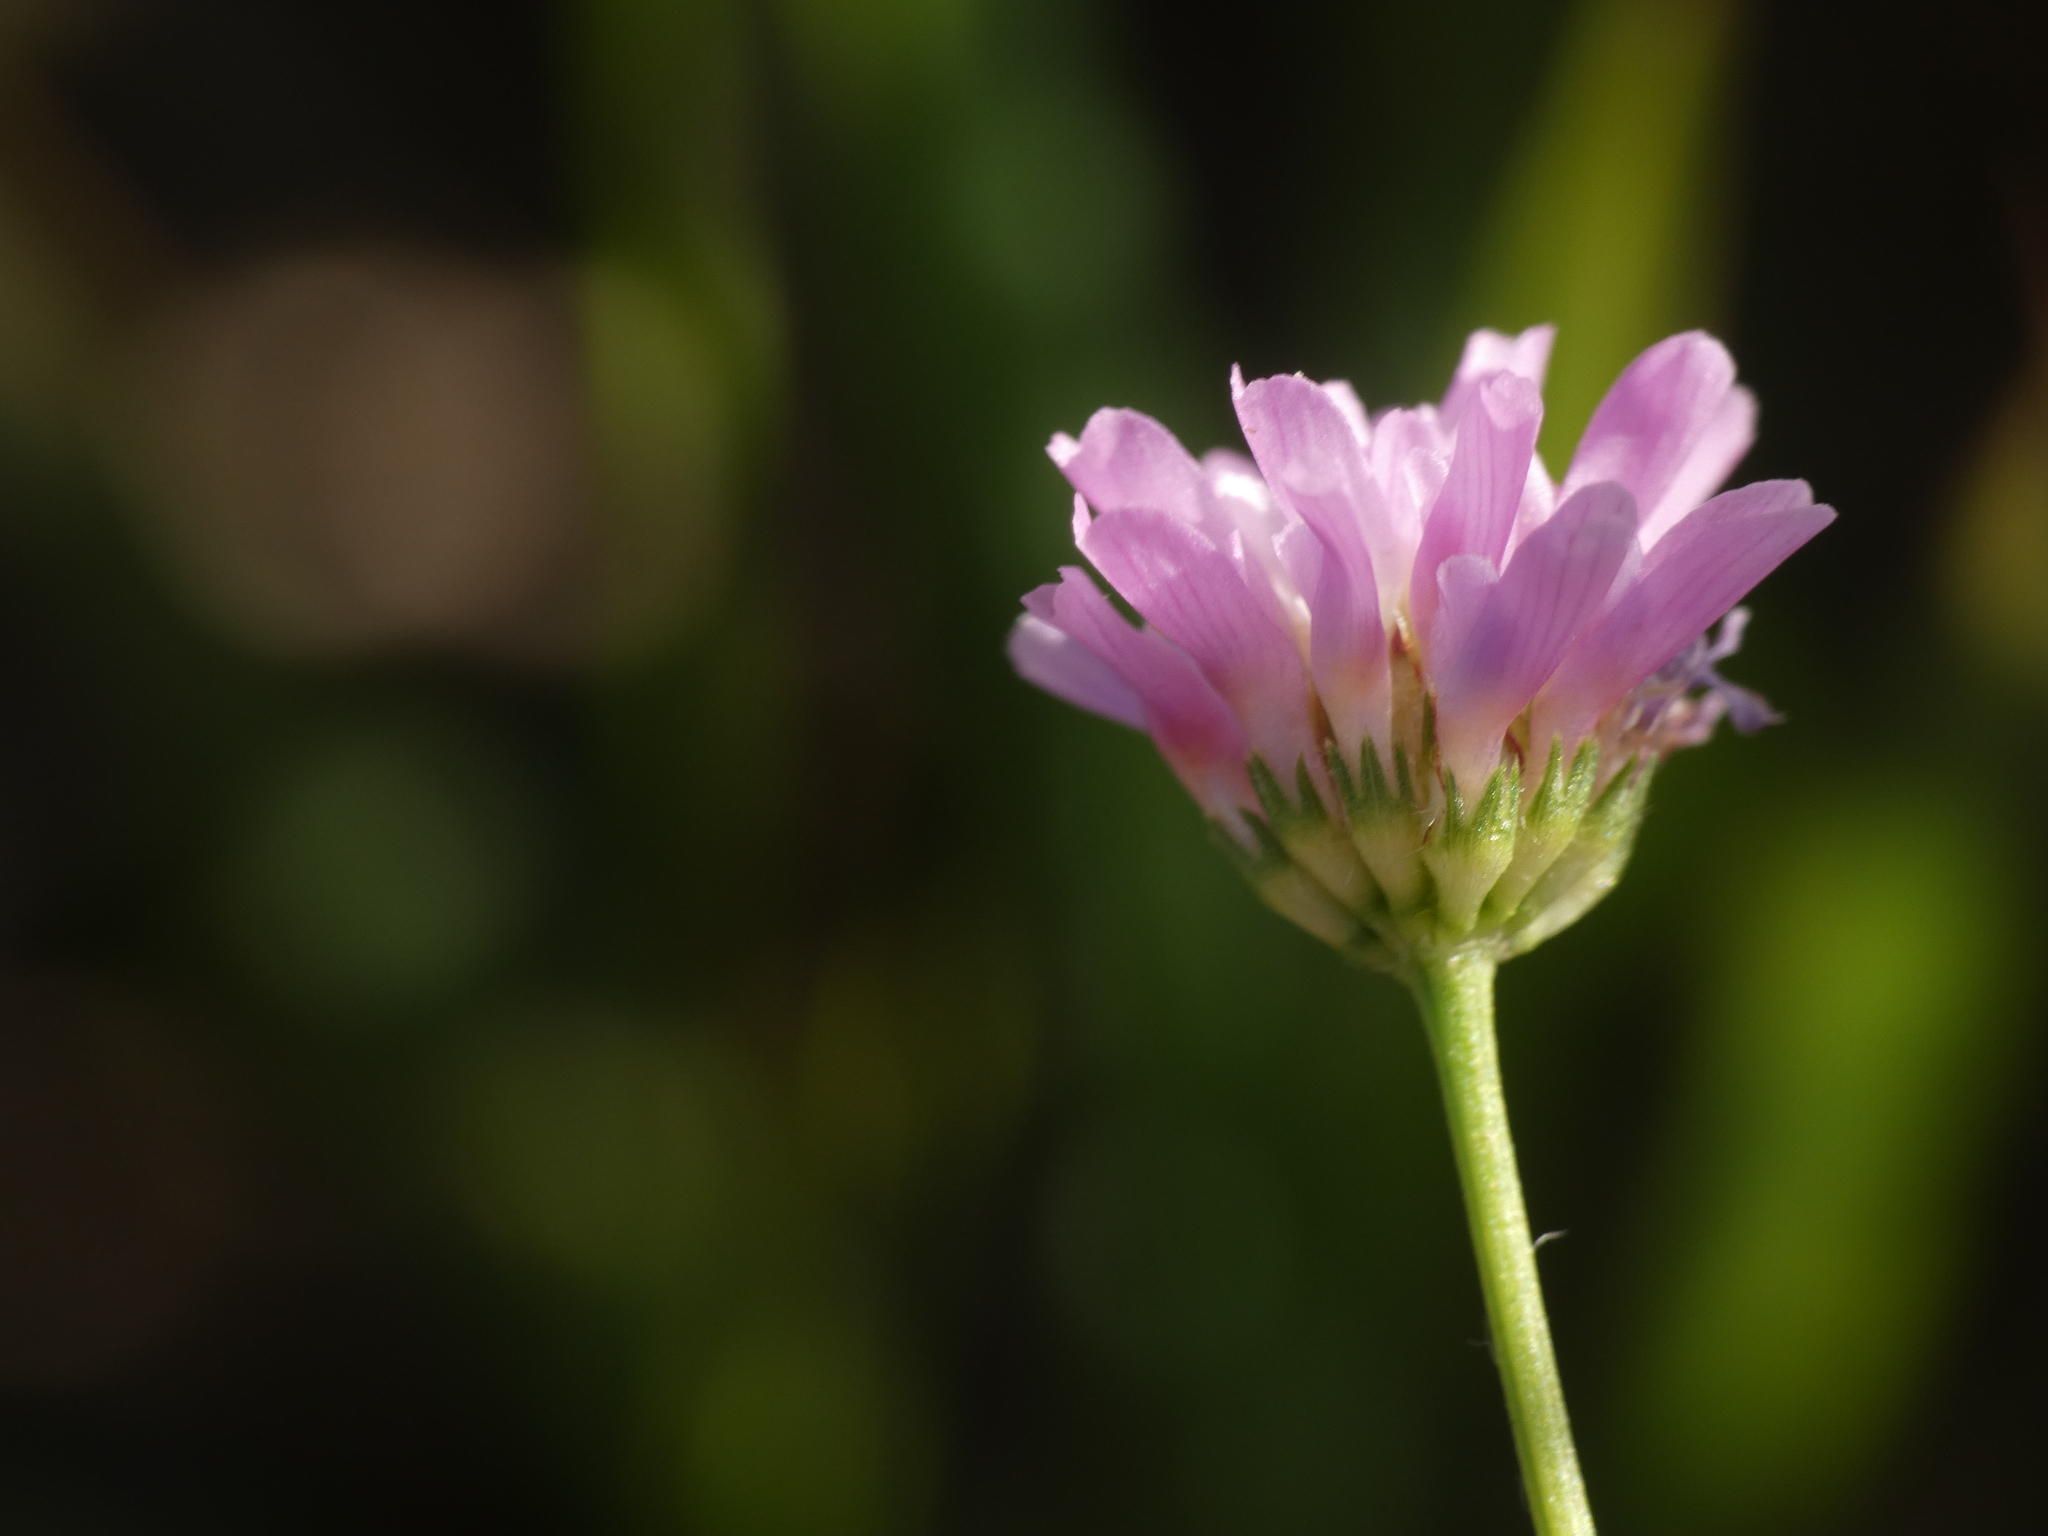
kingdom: Plantae
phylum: Tracheophyta
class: Magnoliopsida
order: Fabales
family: Fabaceae
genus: Trifolium
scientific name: Trifolium resupinatum
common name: Reversed clover
